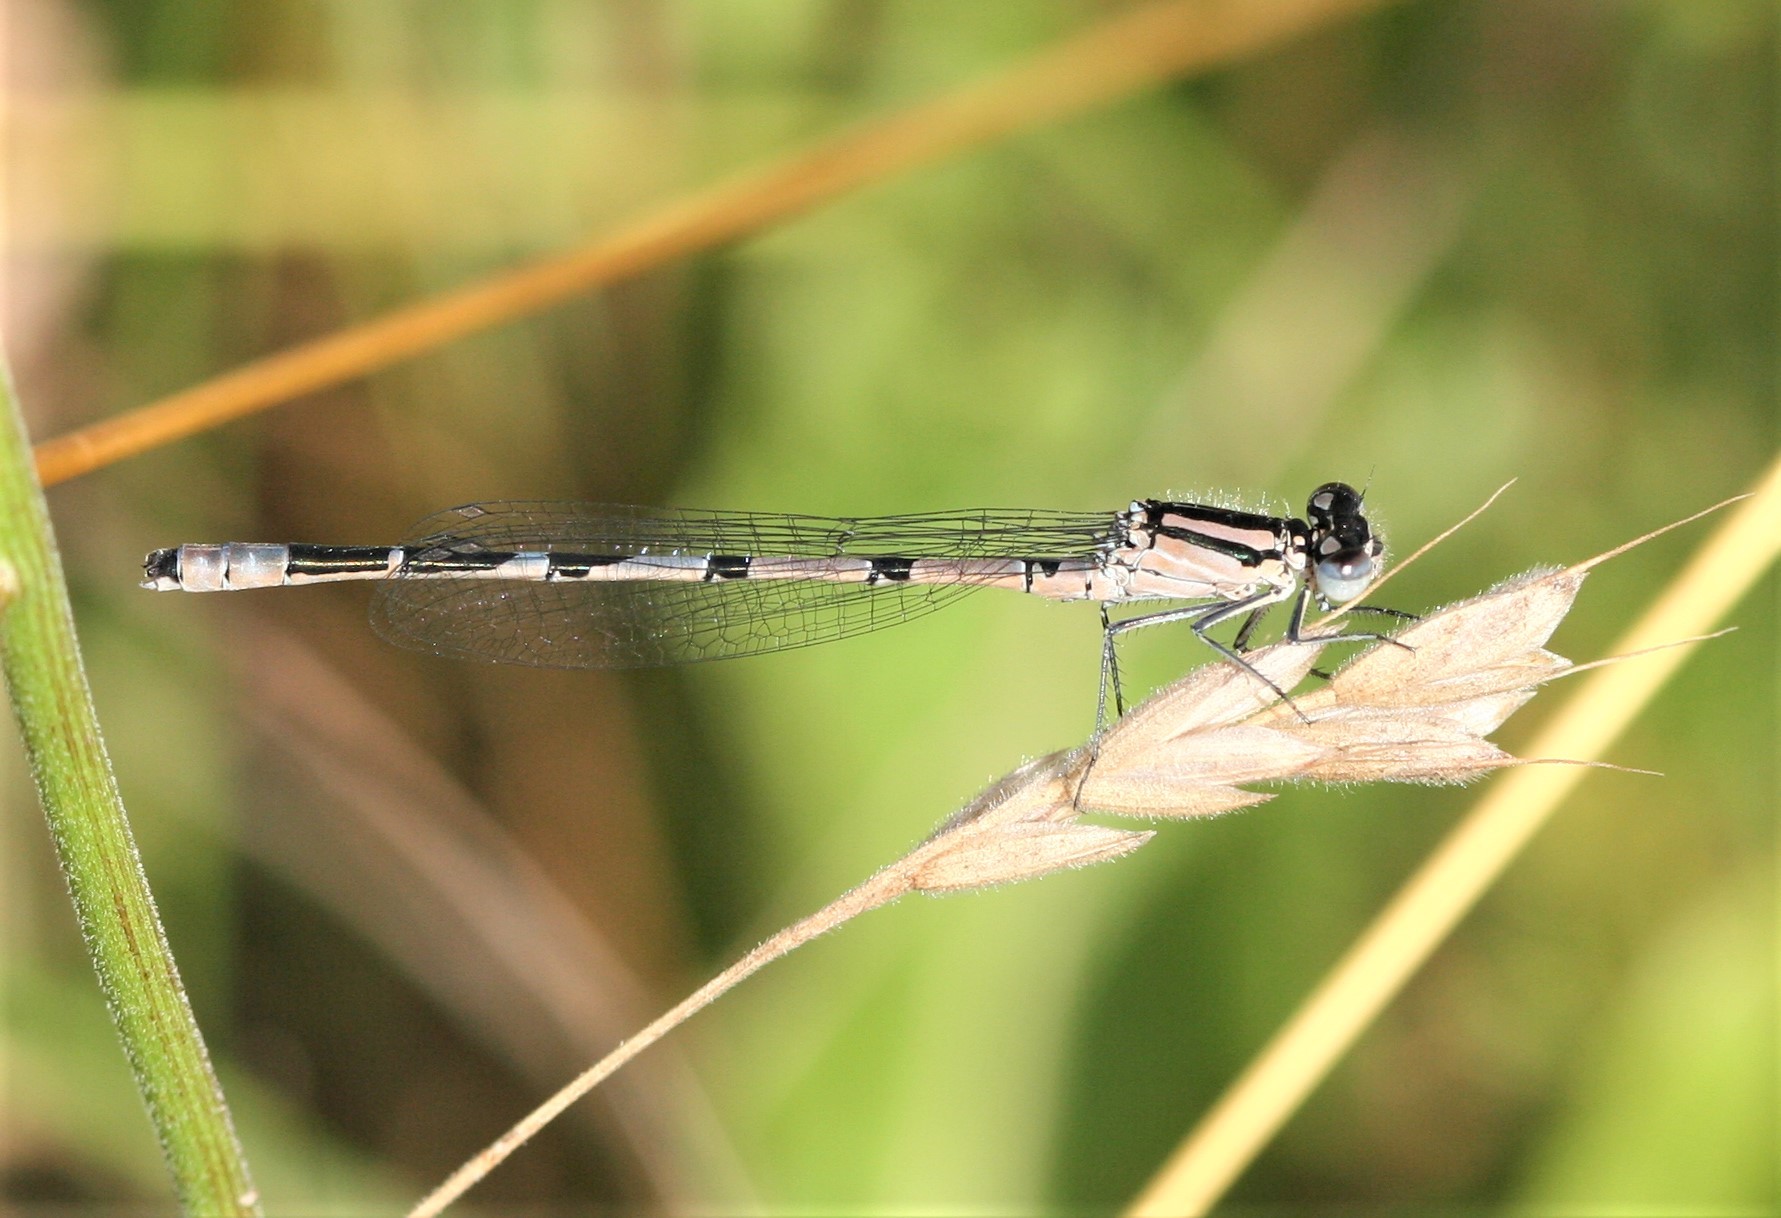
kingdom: Animalia
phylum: Arthropoda
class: Insecta
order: Odonata
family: Coenagrionidae
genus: Enallagma
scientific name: Enallagma cyathigerum
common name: Common blue damselfly
